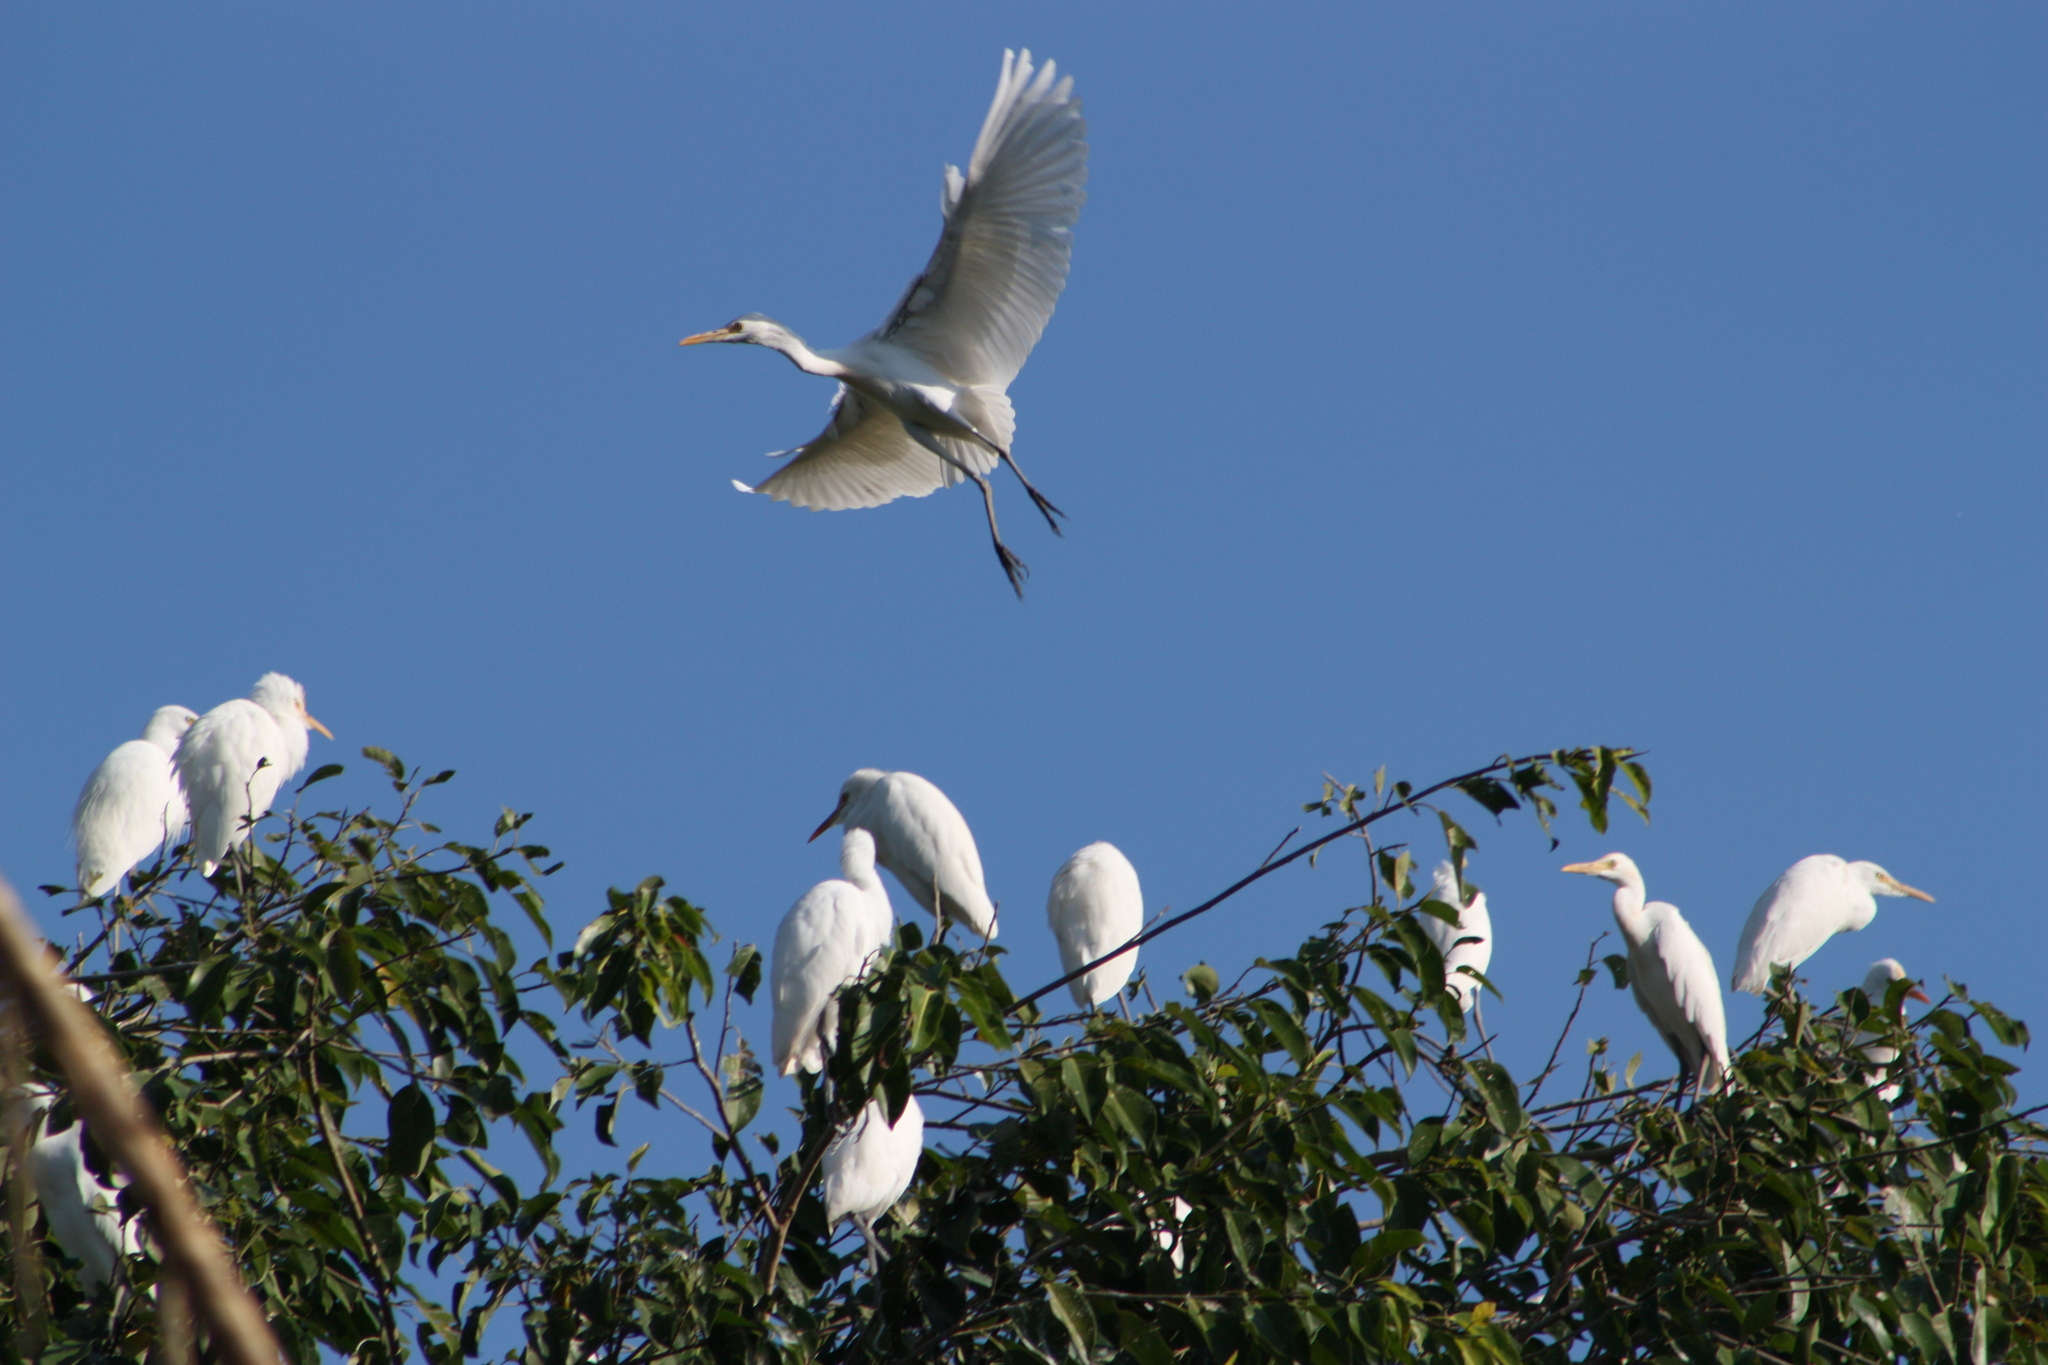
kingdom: Animalia
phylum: Chordata
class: Aves
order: Pelecaniformes
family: Ardeidae
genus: Bubulcus
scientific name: Bubulcus coromandus
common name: Eastern cattle egret
